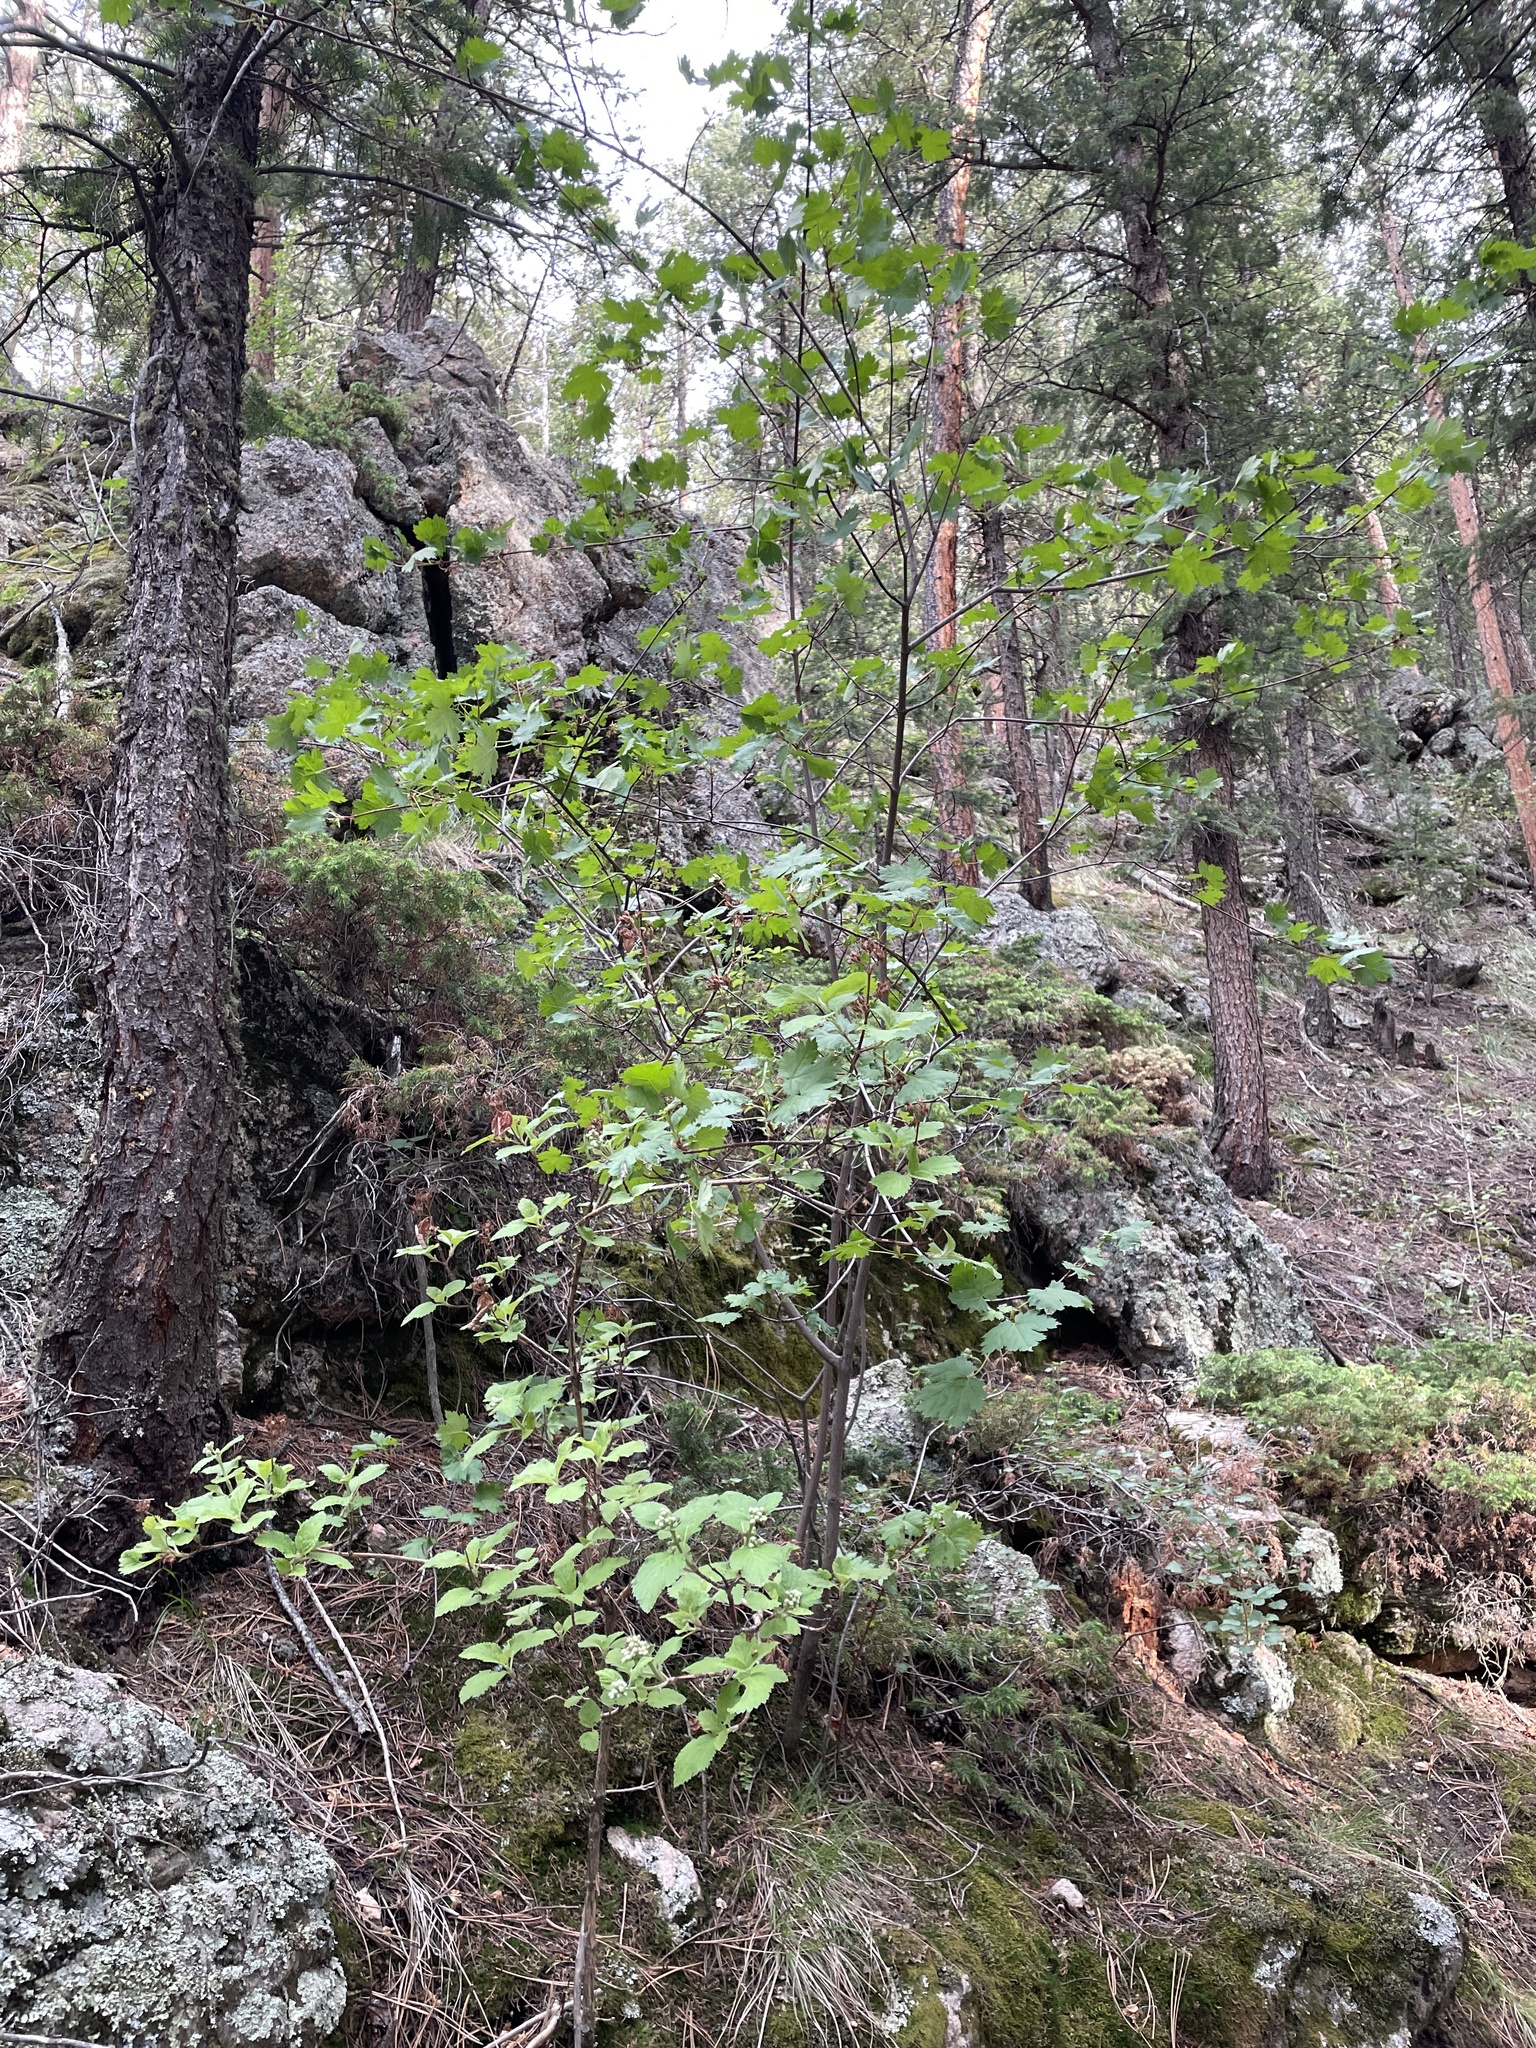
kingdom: Plantae
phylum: Tracheophyta
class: Magnoliopsida
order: Sapindales
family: Sapindaceae
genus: Acer
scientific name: Acer glabrum
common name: Rocky mountain maple
